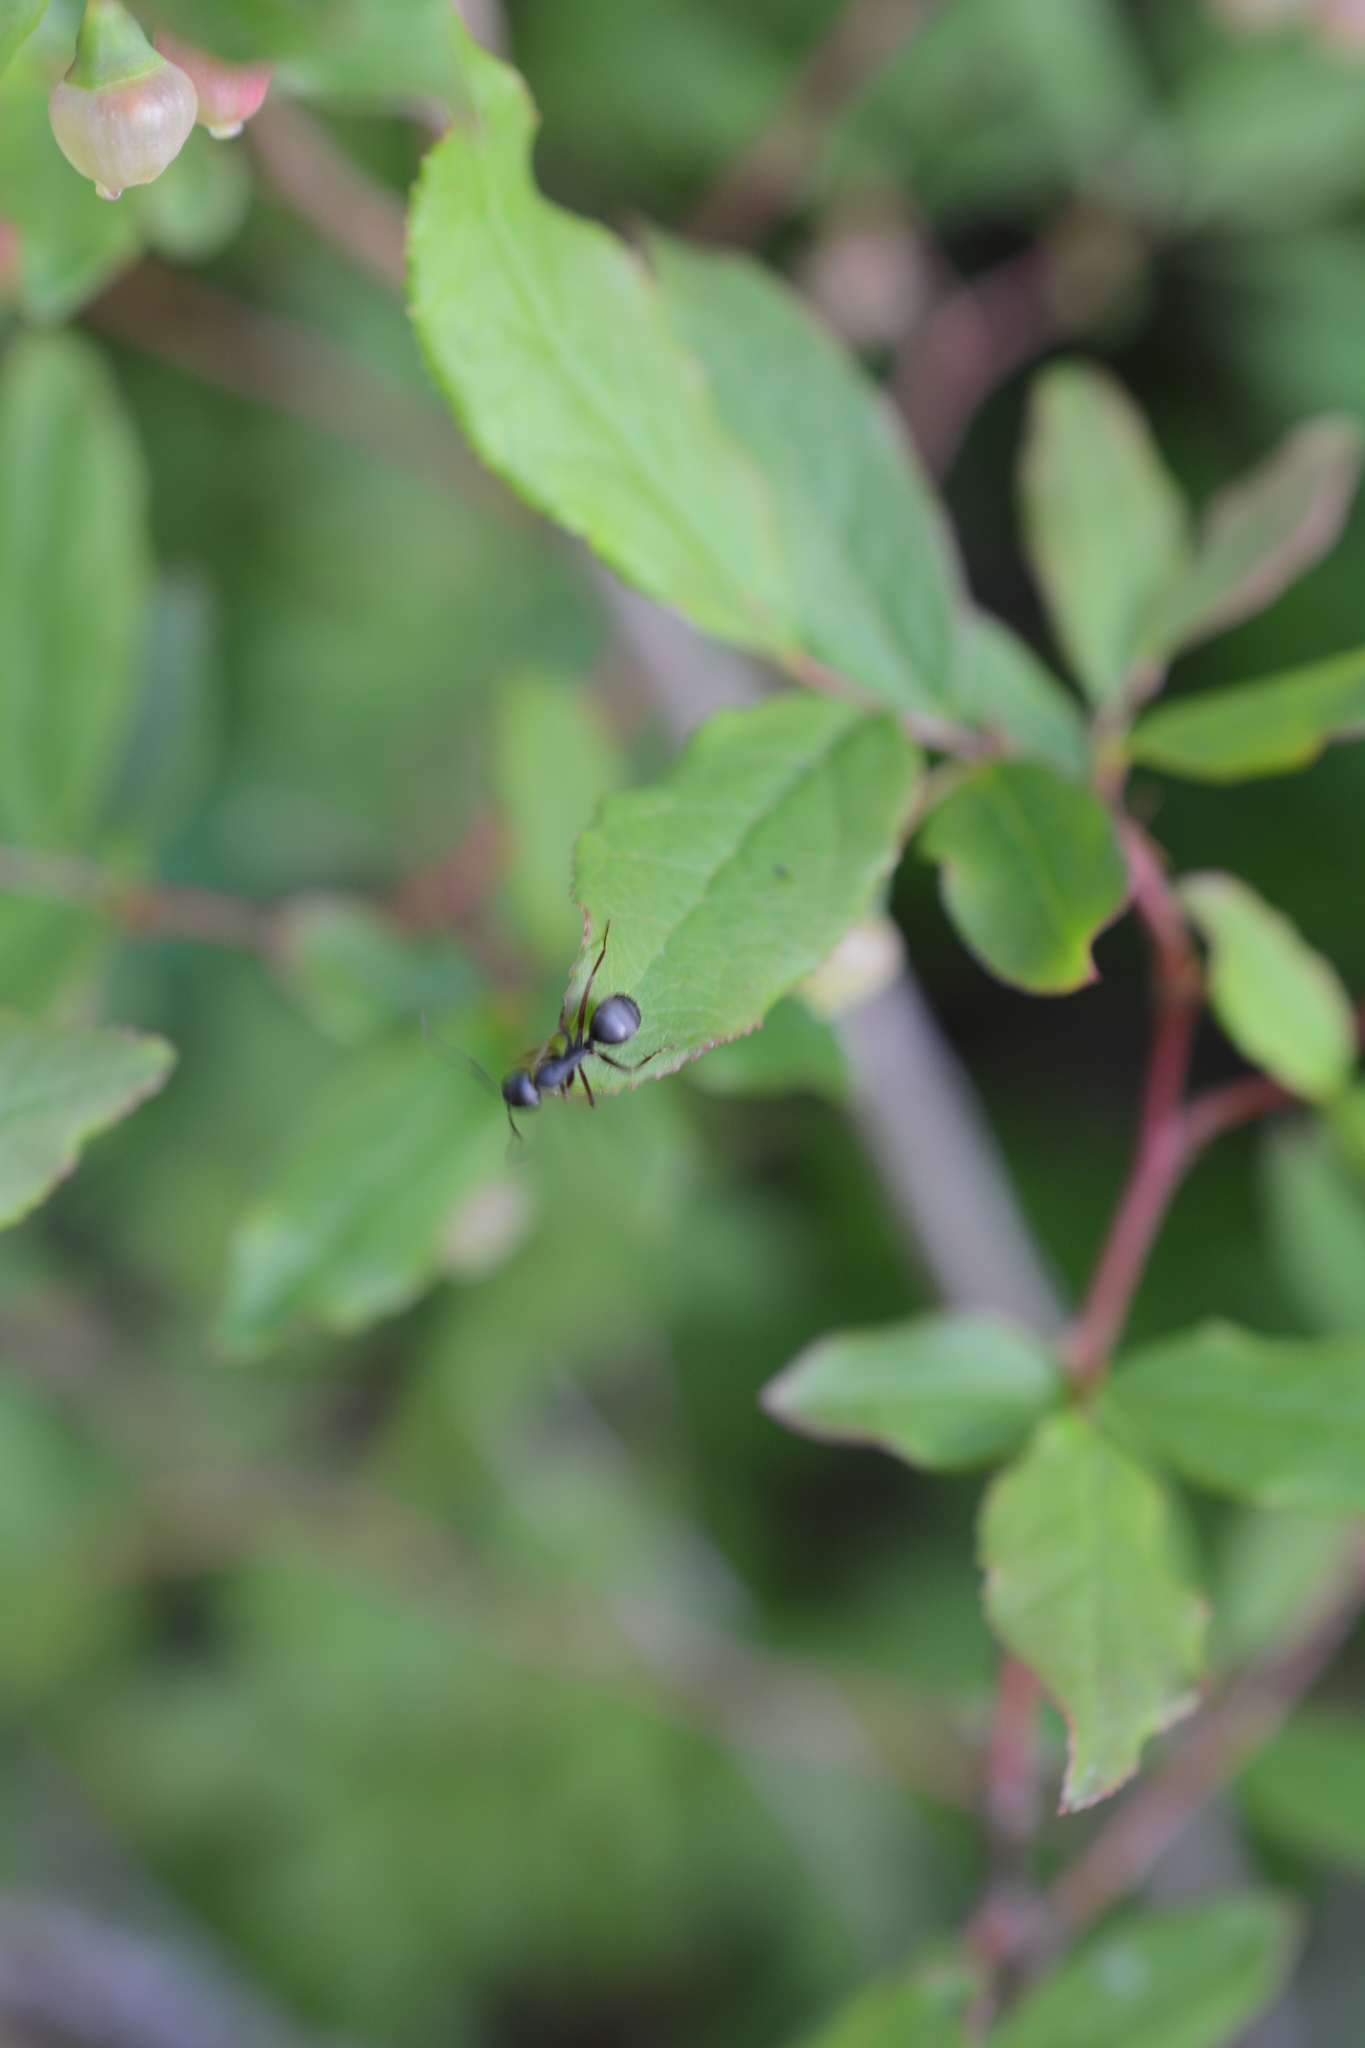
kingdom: Animalia
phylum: Arthropoda
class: Insecta
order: Hymenoptera
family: Formicidae
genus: Camponotus
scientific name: Camponotus modoc
